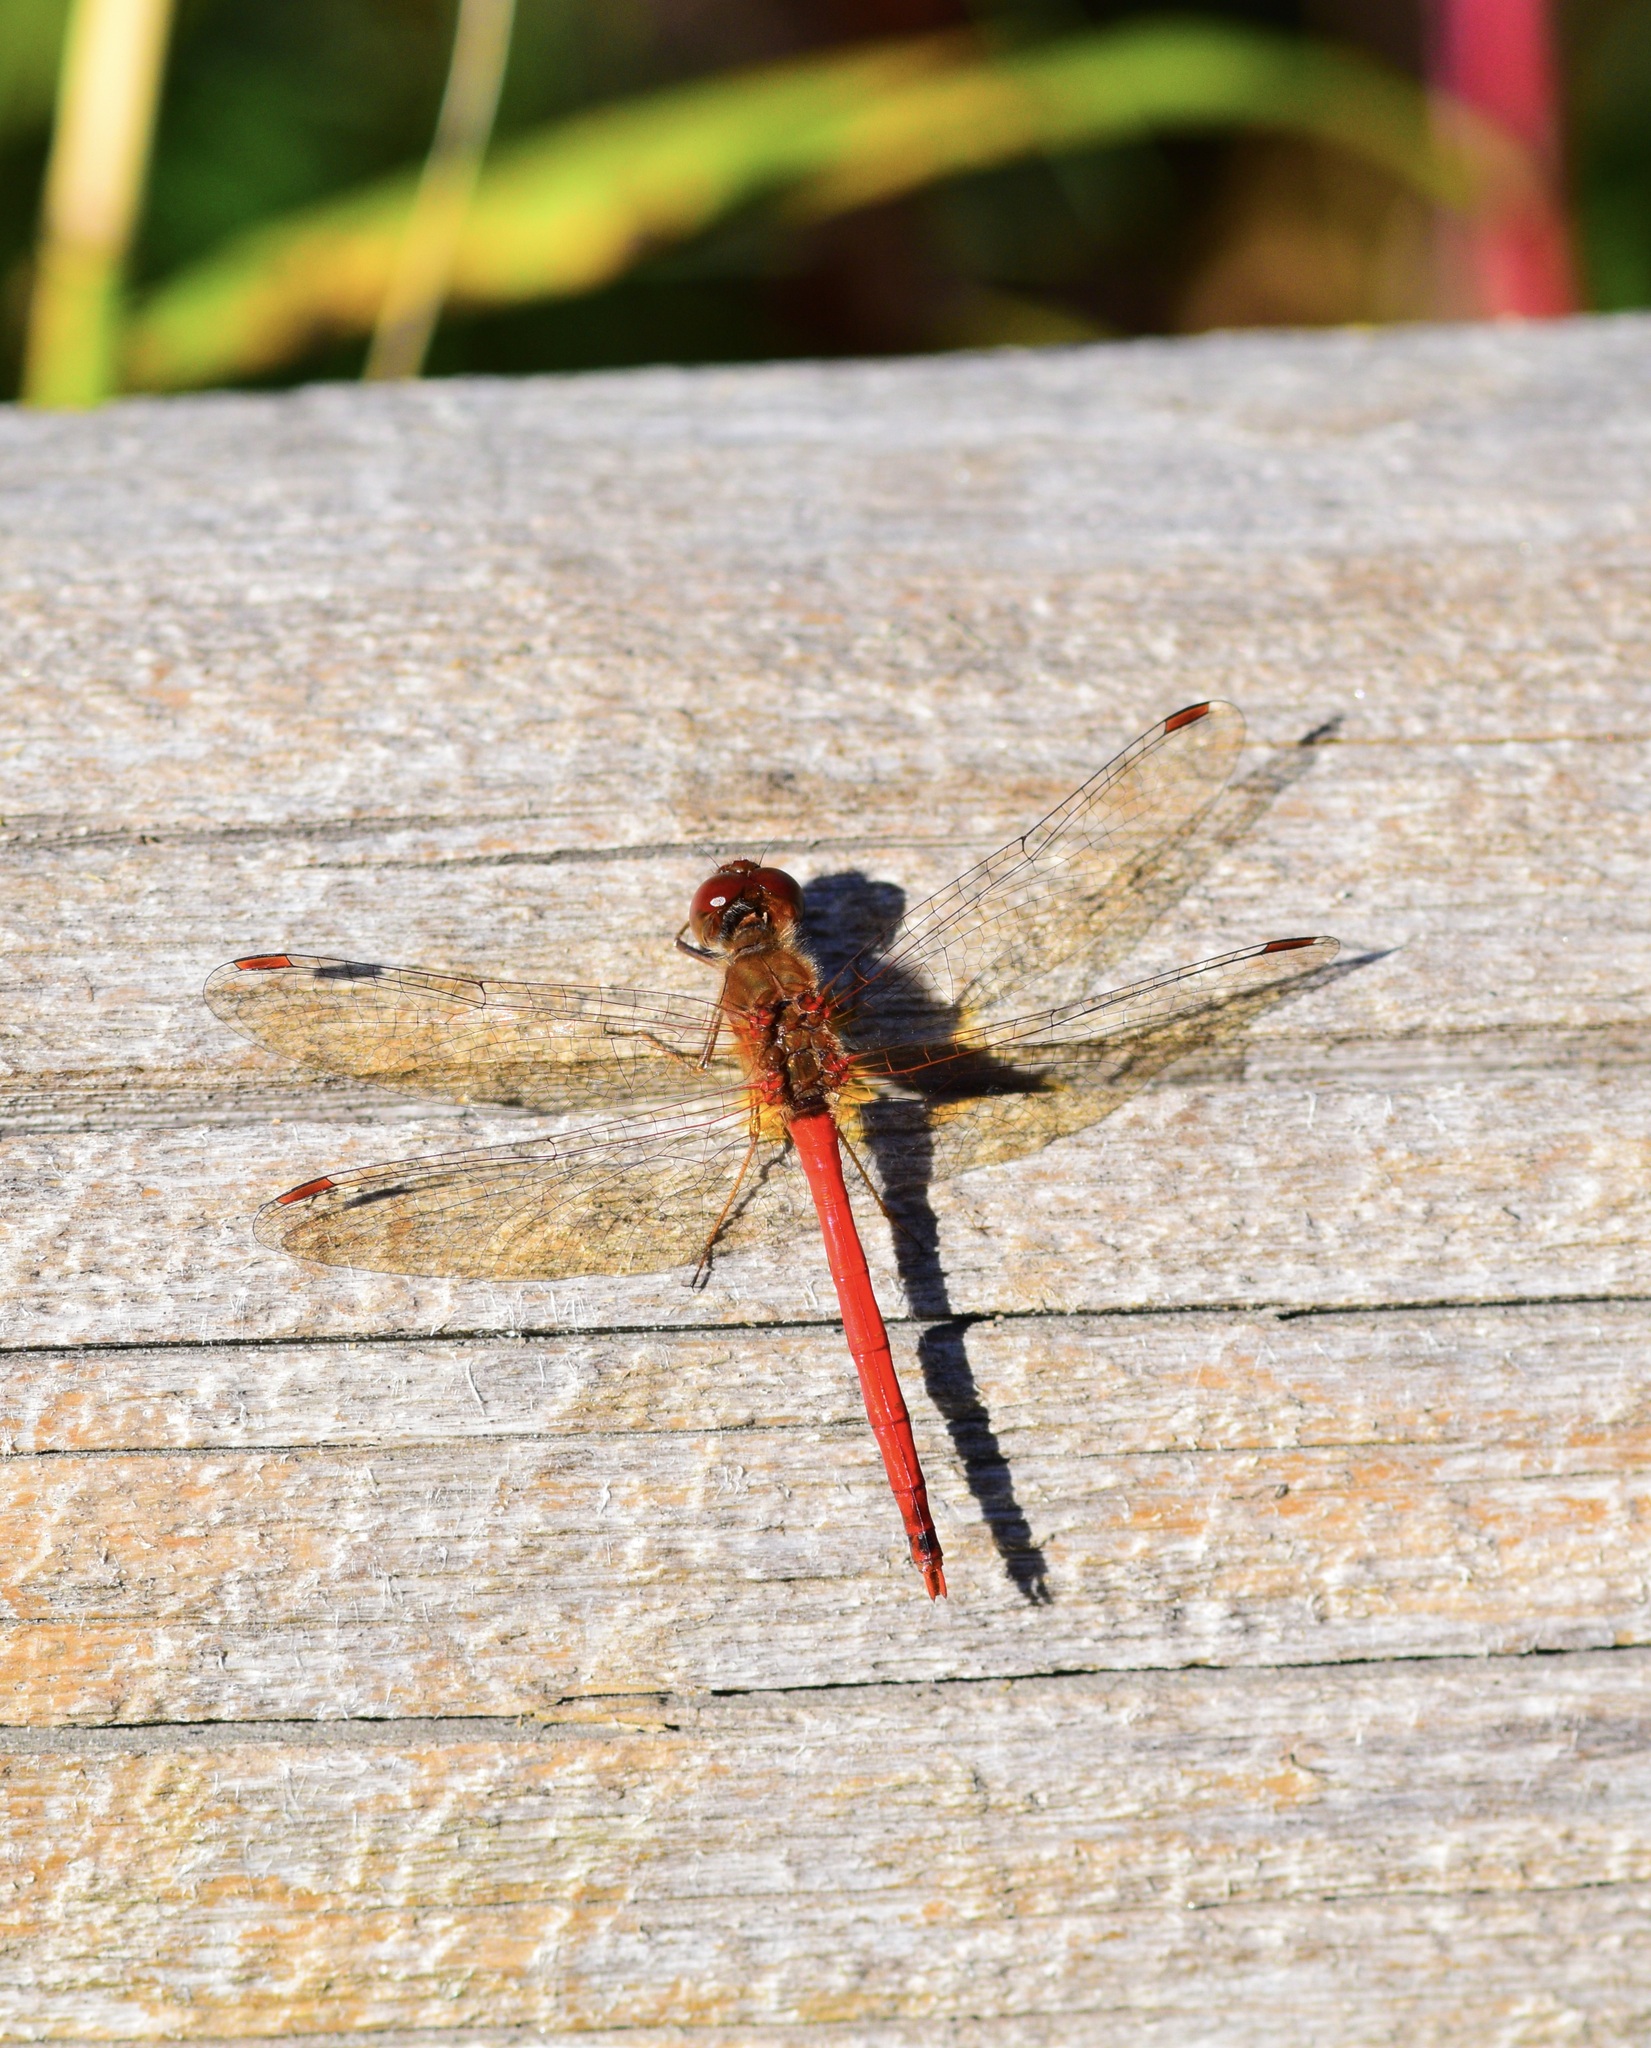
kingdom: Animalia
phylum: Arthropoda
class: Insecta
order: Odonata
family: Libellulidae
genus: Sympetrum
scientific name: Sympetrum vicinum
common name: Autumn meadowhawk
